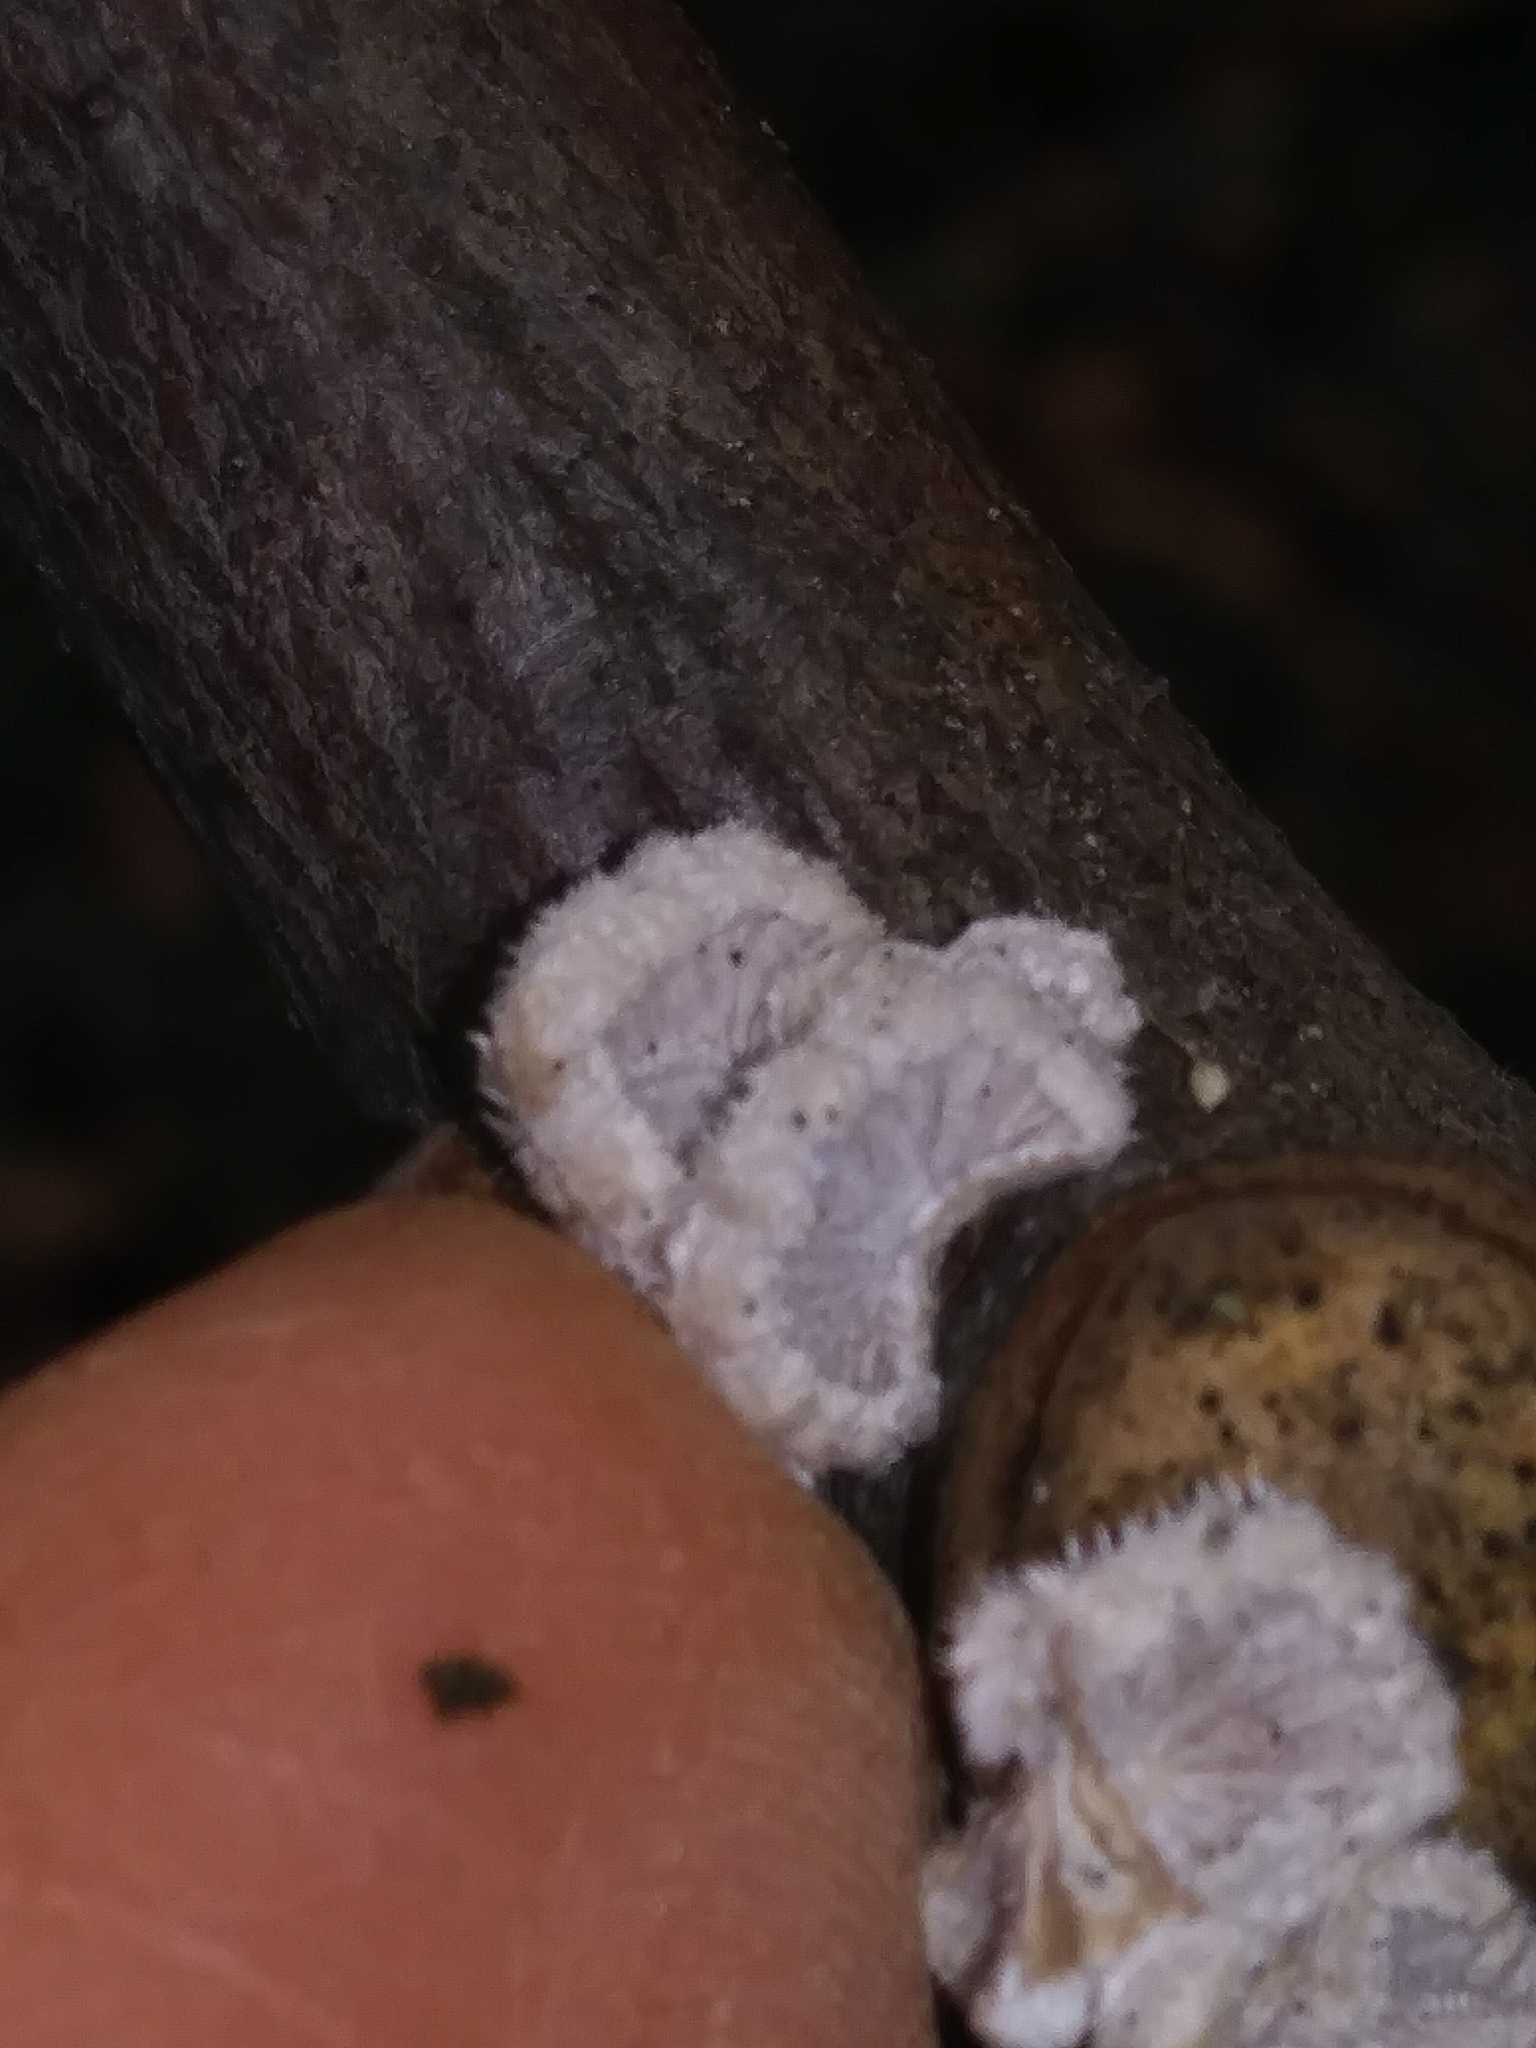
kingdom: Fungi
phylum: Basidiomycota
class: Agaricomycetes
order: Agaricales
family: Schizophyllaceae
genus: Schizophyllum
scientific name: Schizophyllum commune
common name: Common porecrust
